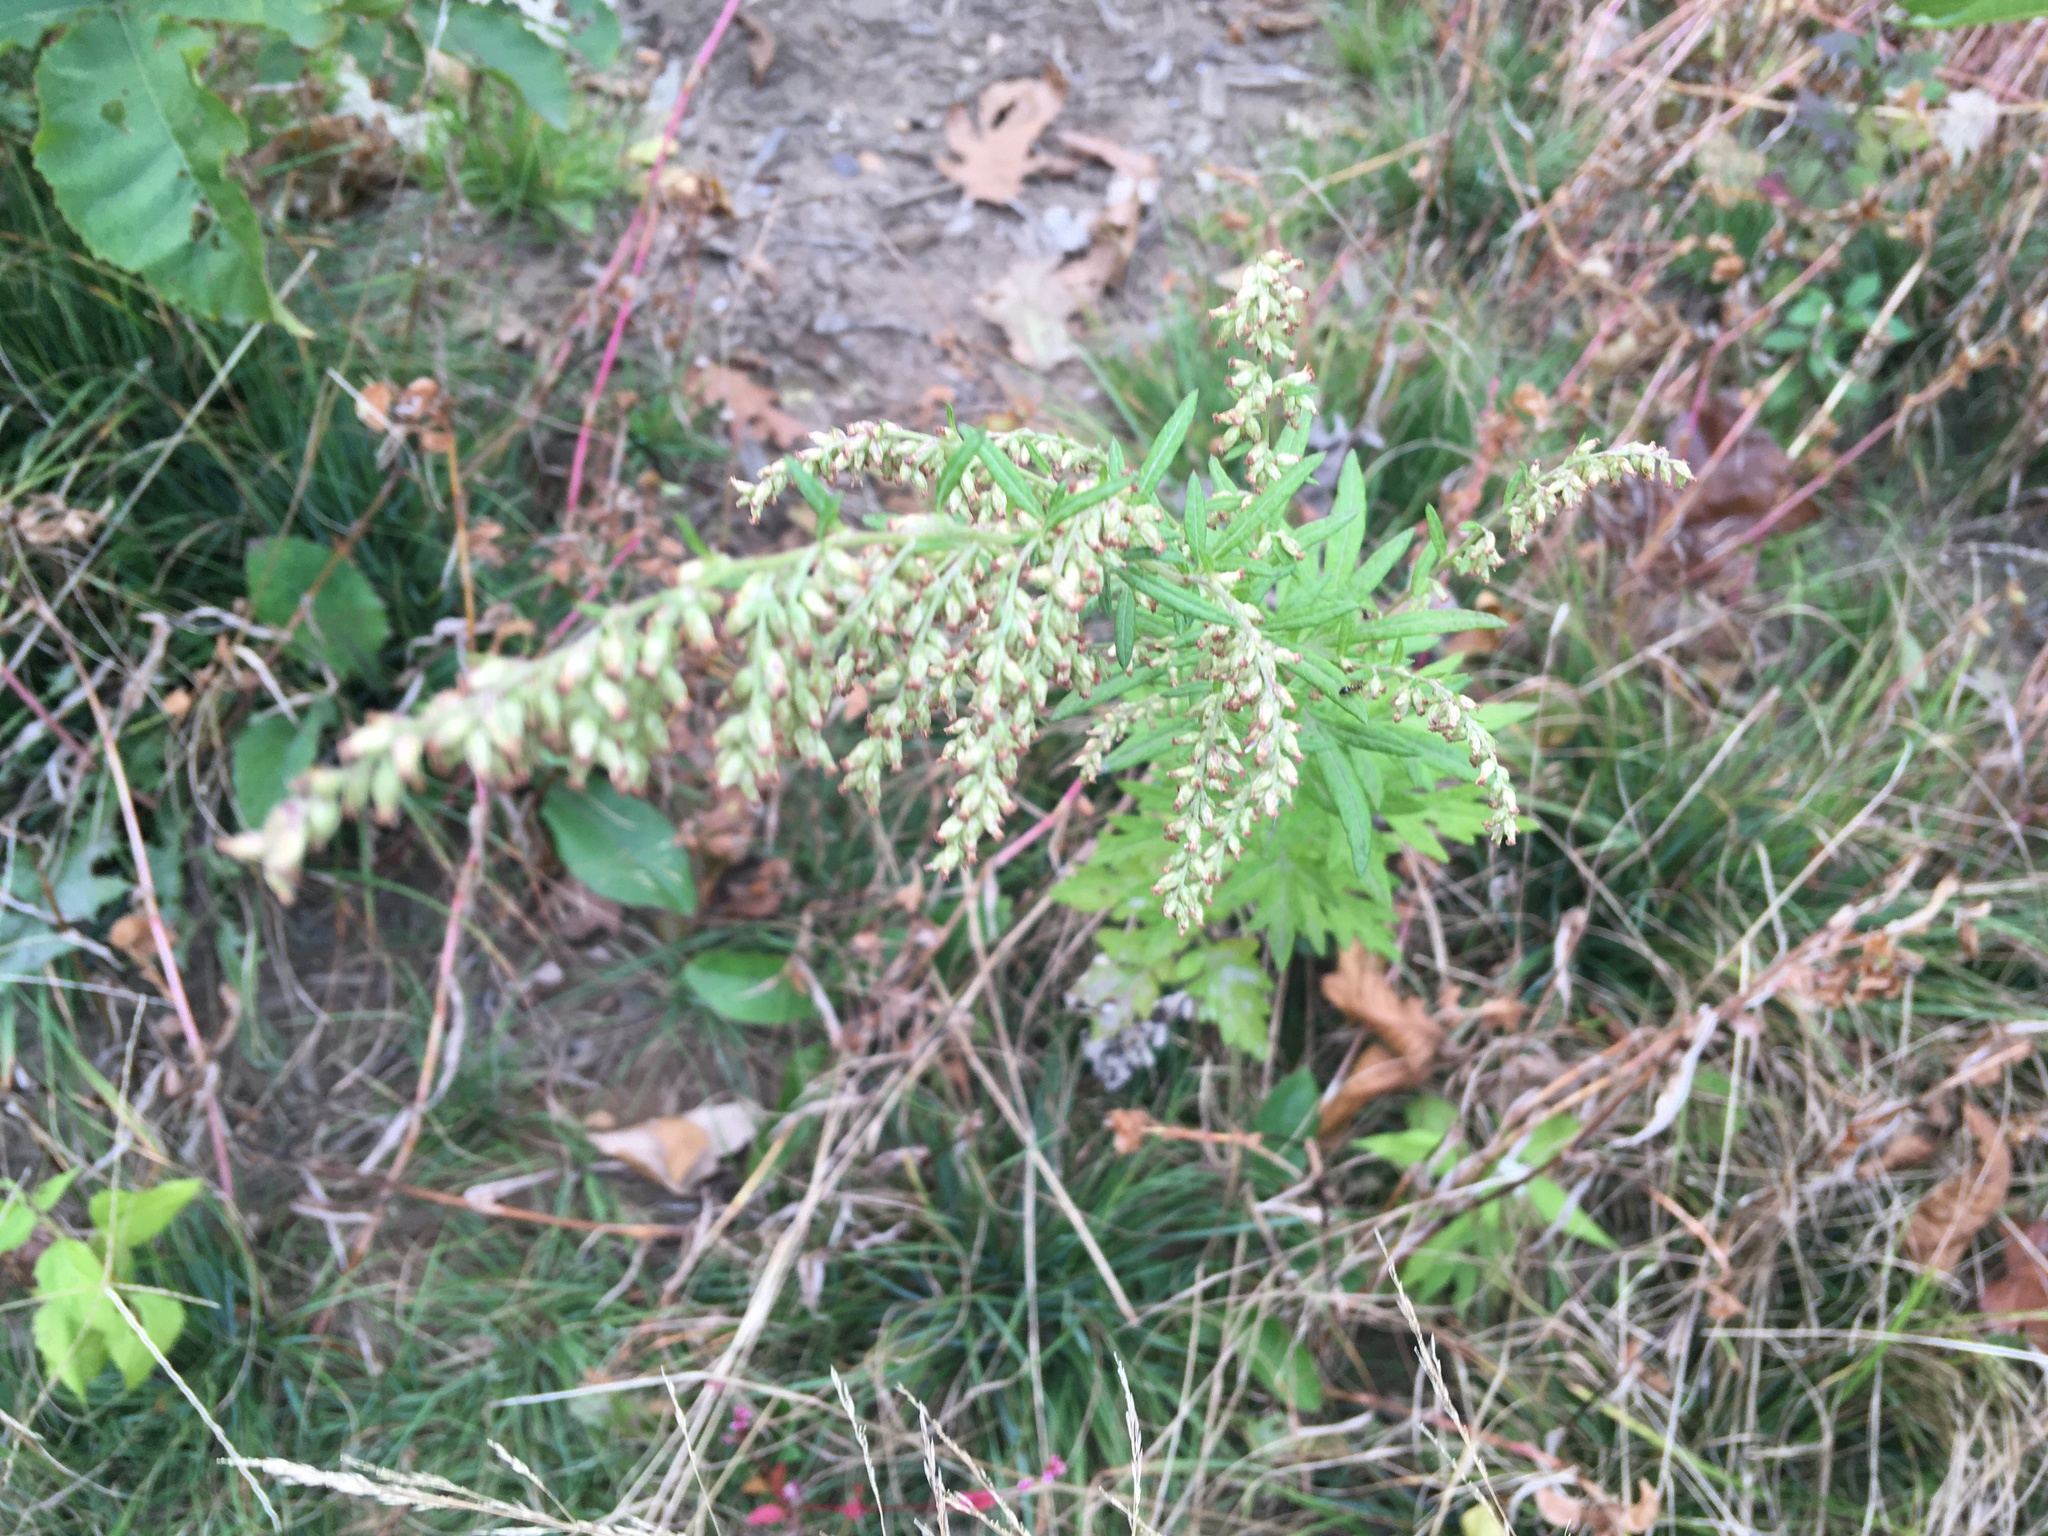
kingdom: Plantae
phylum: Tracheophyta
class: Magnoliopsida
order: Asterales
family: Asteraceae
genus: Artemisia
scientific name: Artemisia vulgaris
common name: Mugwort
